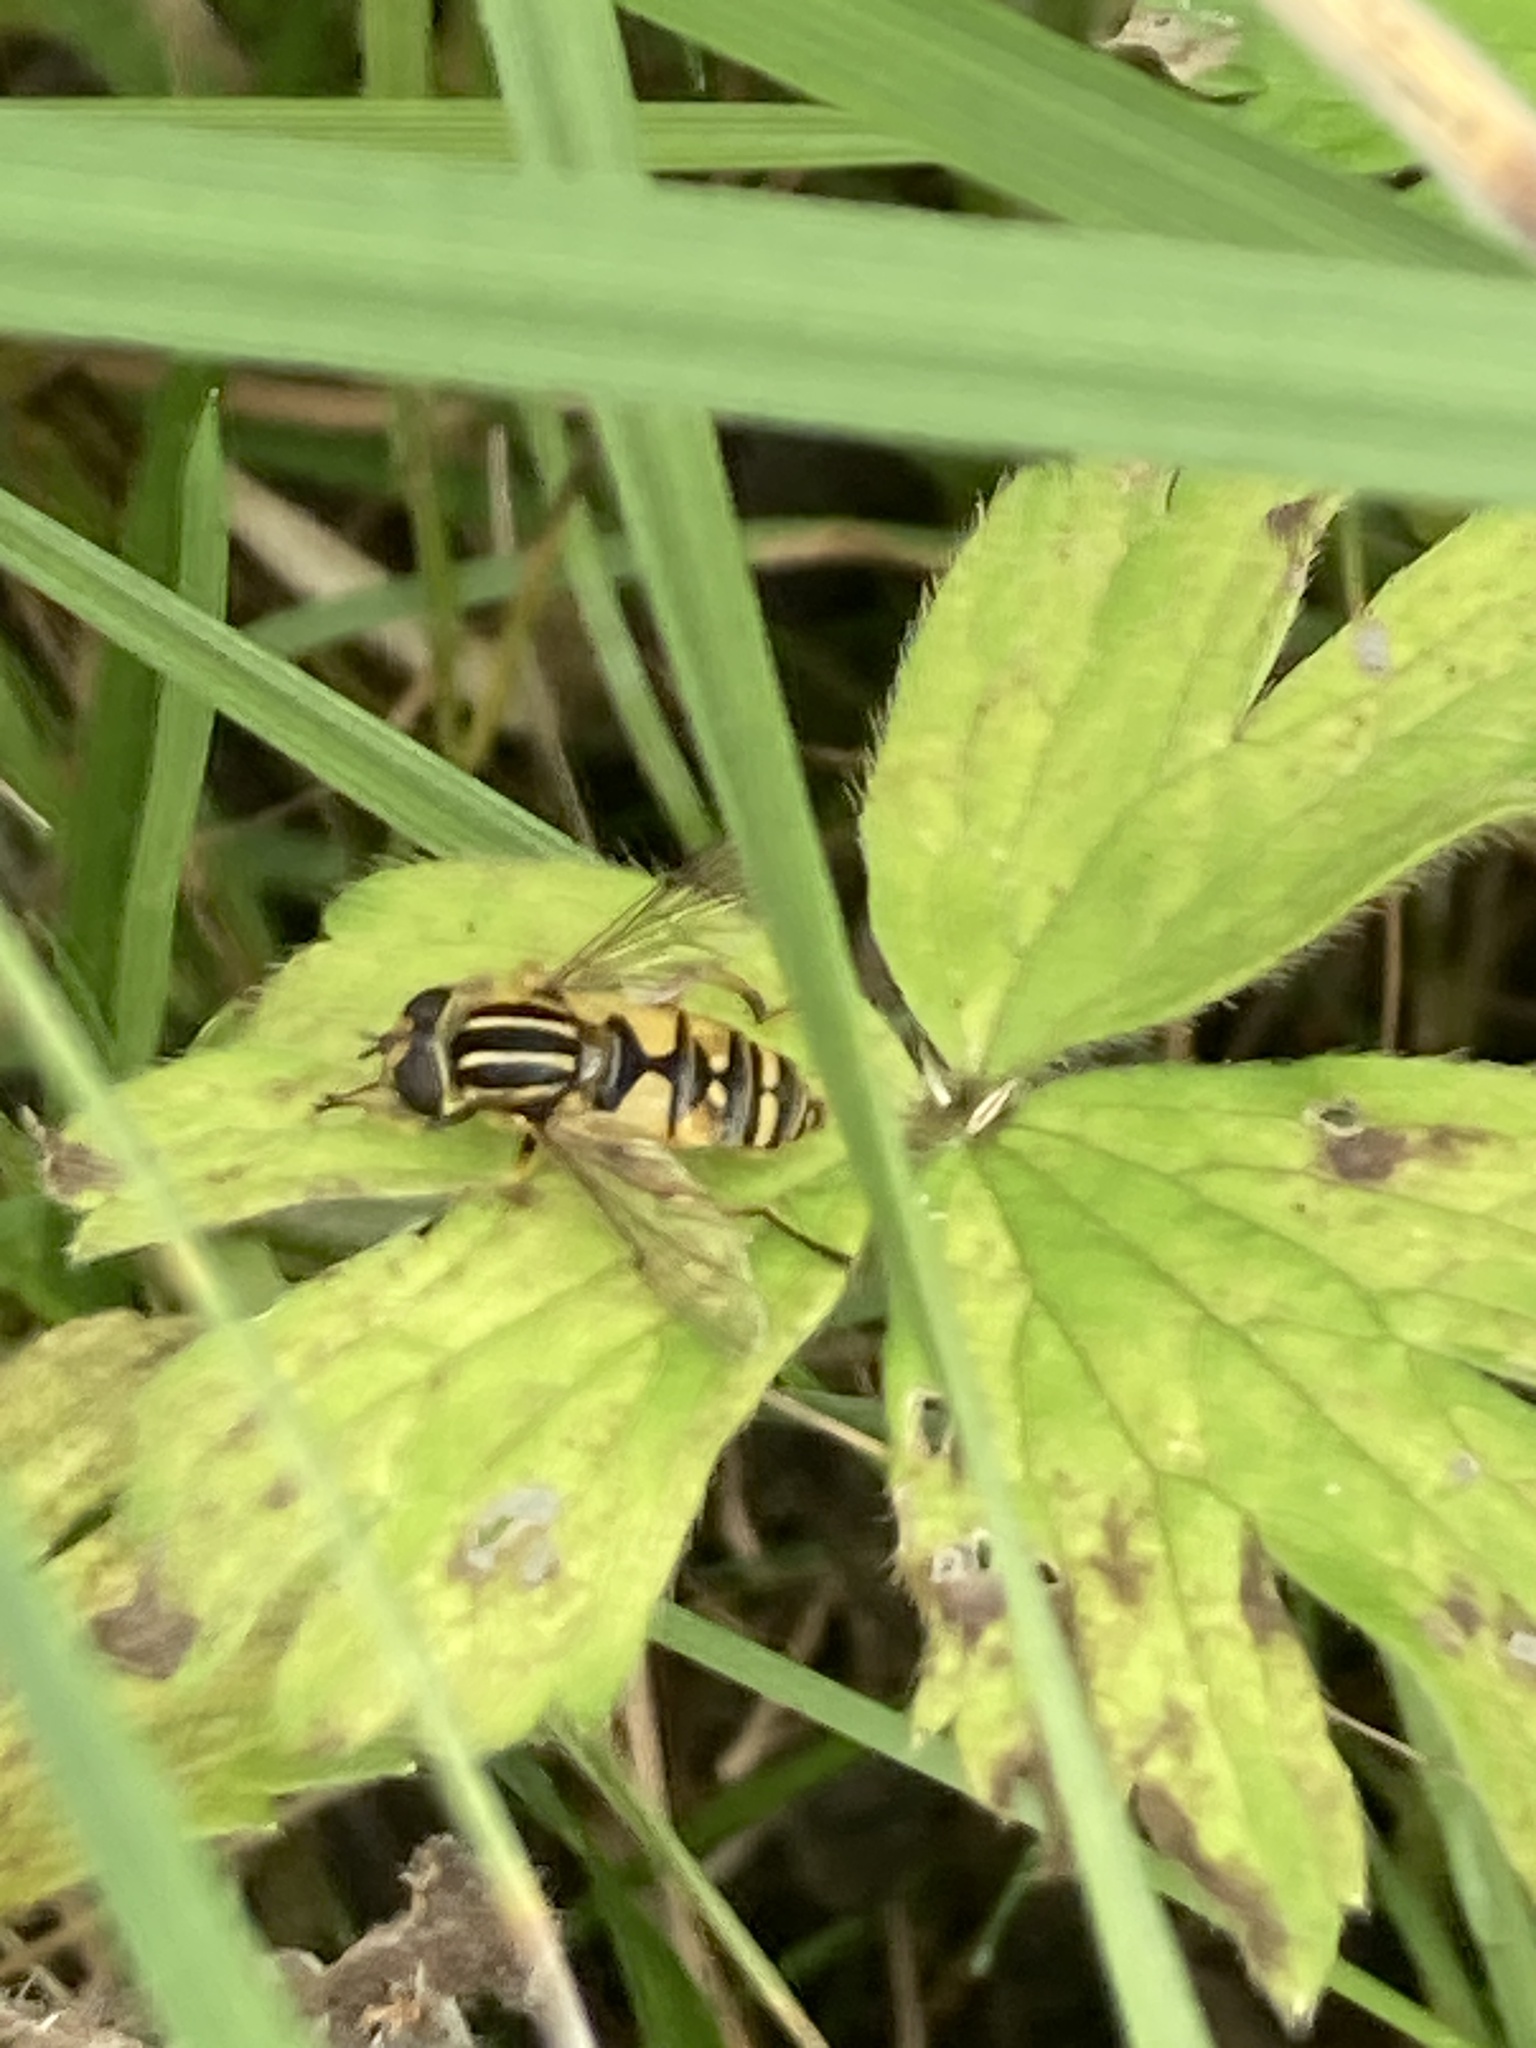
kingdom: Animalia
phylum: Arthropoda
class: Insecta
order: Diptera
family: Syrphidae
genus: Helophilus
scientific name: Helophilus pendulus
